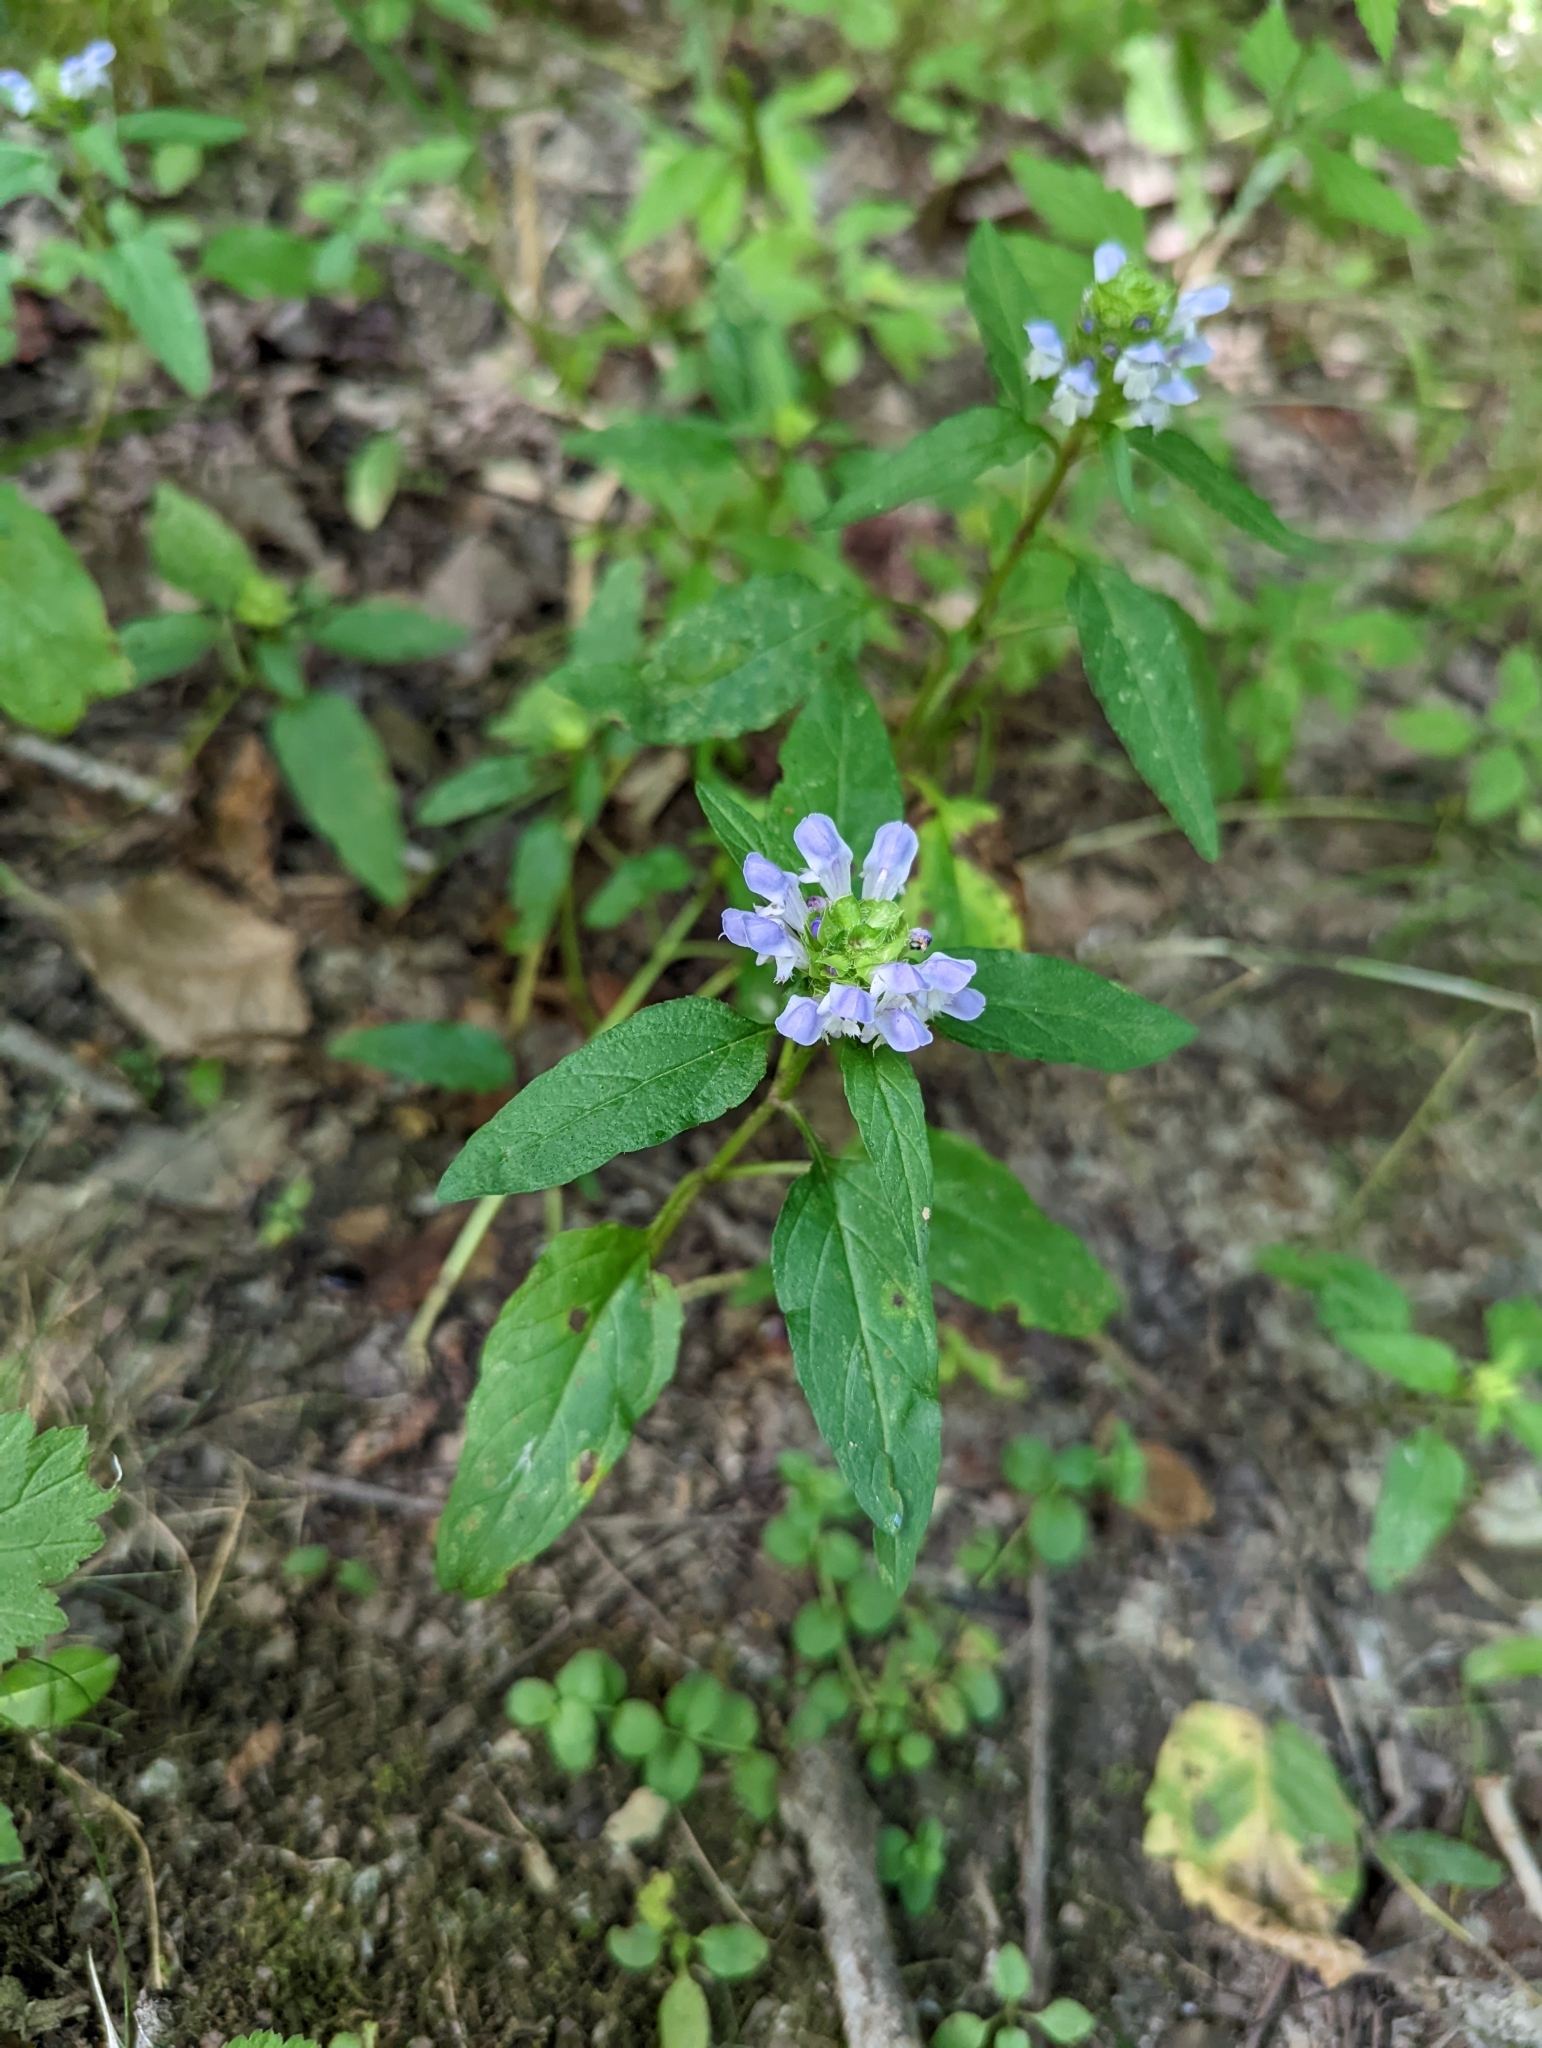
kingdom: Plantae
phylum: Tracheophyta
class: Magnoliopsida
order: Lamiales
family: Lamiaceae
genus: Prunella
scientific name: Prunella vulgaris
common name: Heal-all
